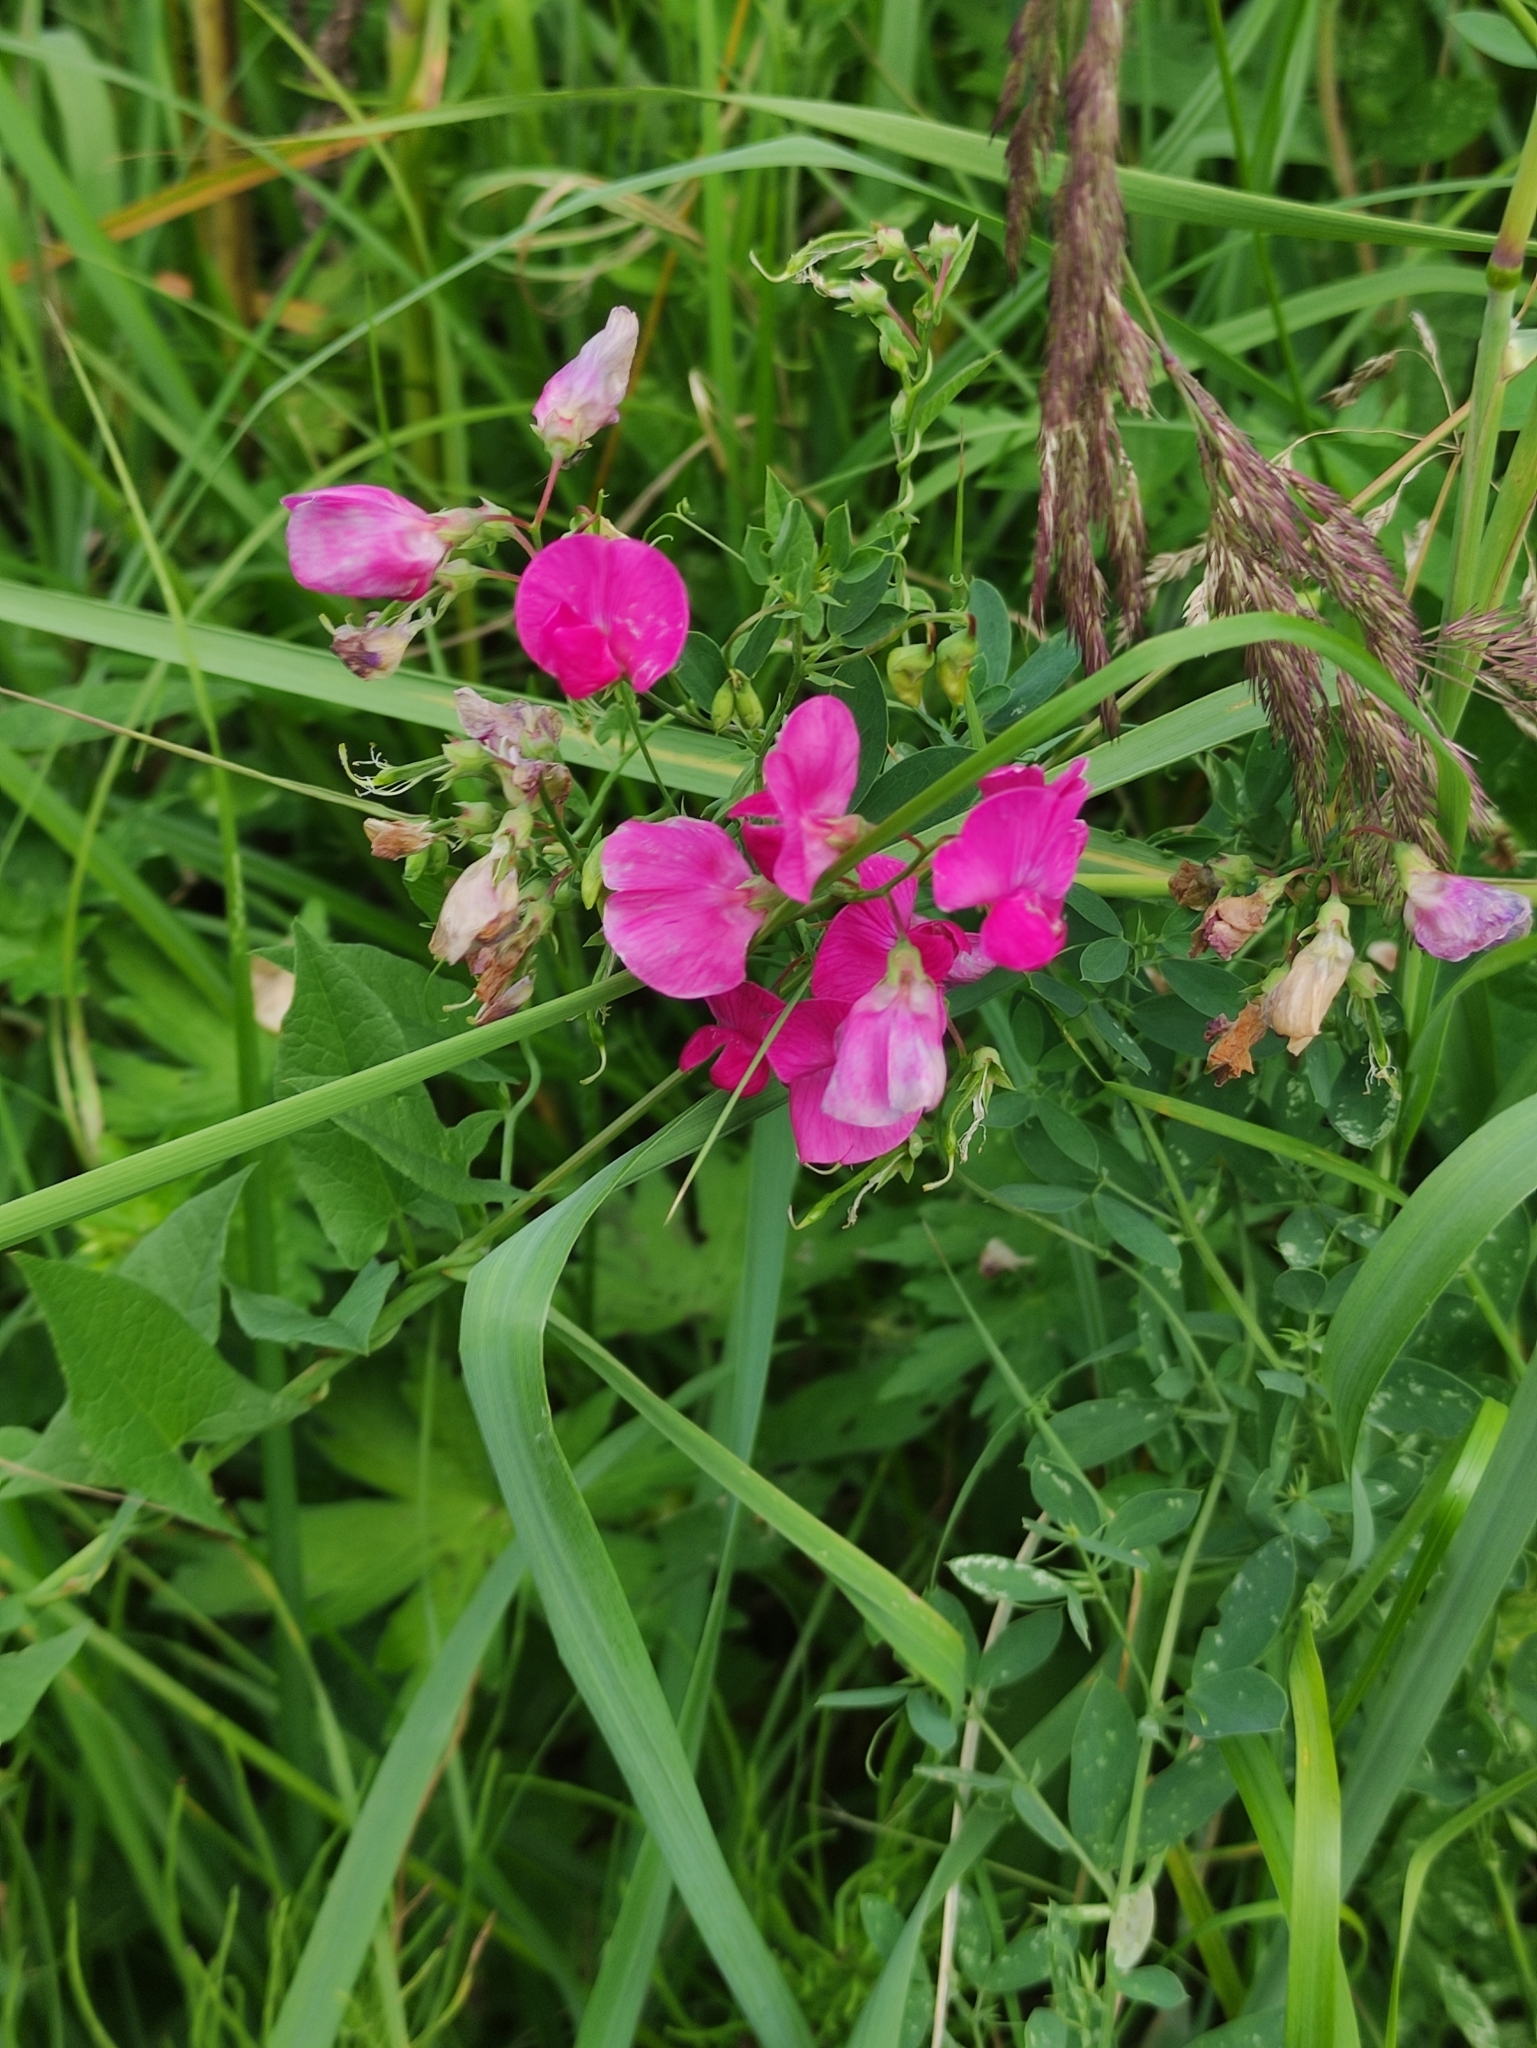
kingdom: Plantae
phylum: Tracheophyta
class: Magnoliopsida
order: Fabales
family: Fabaceae
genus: Lathyrus
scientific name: Lathyrus tuberosus
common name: Tuberous pea
